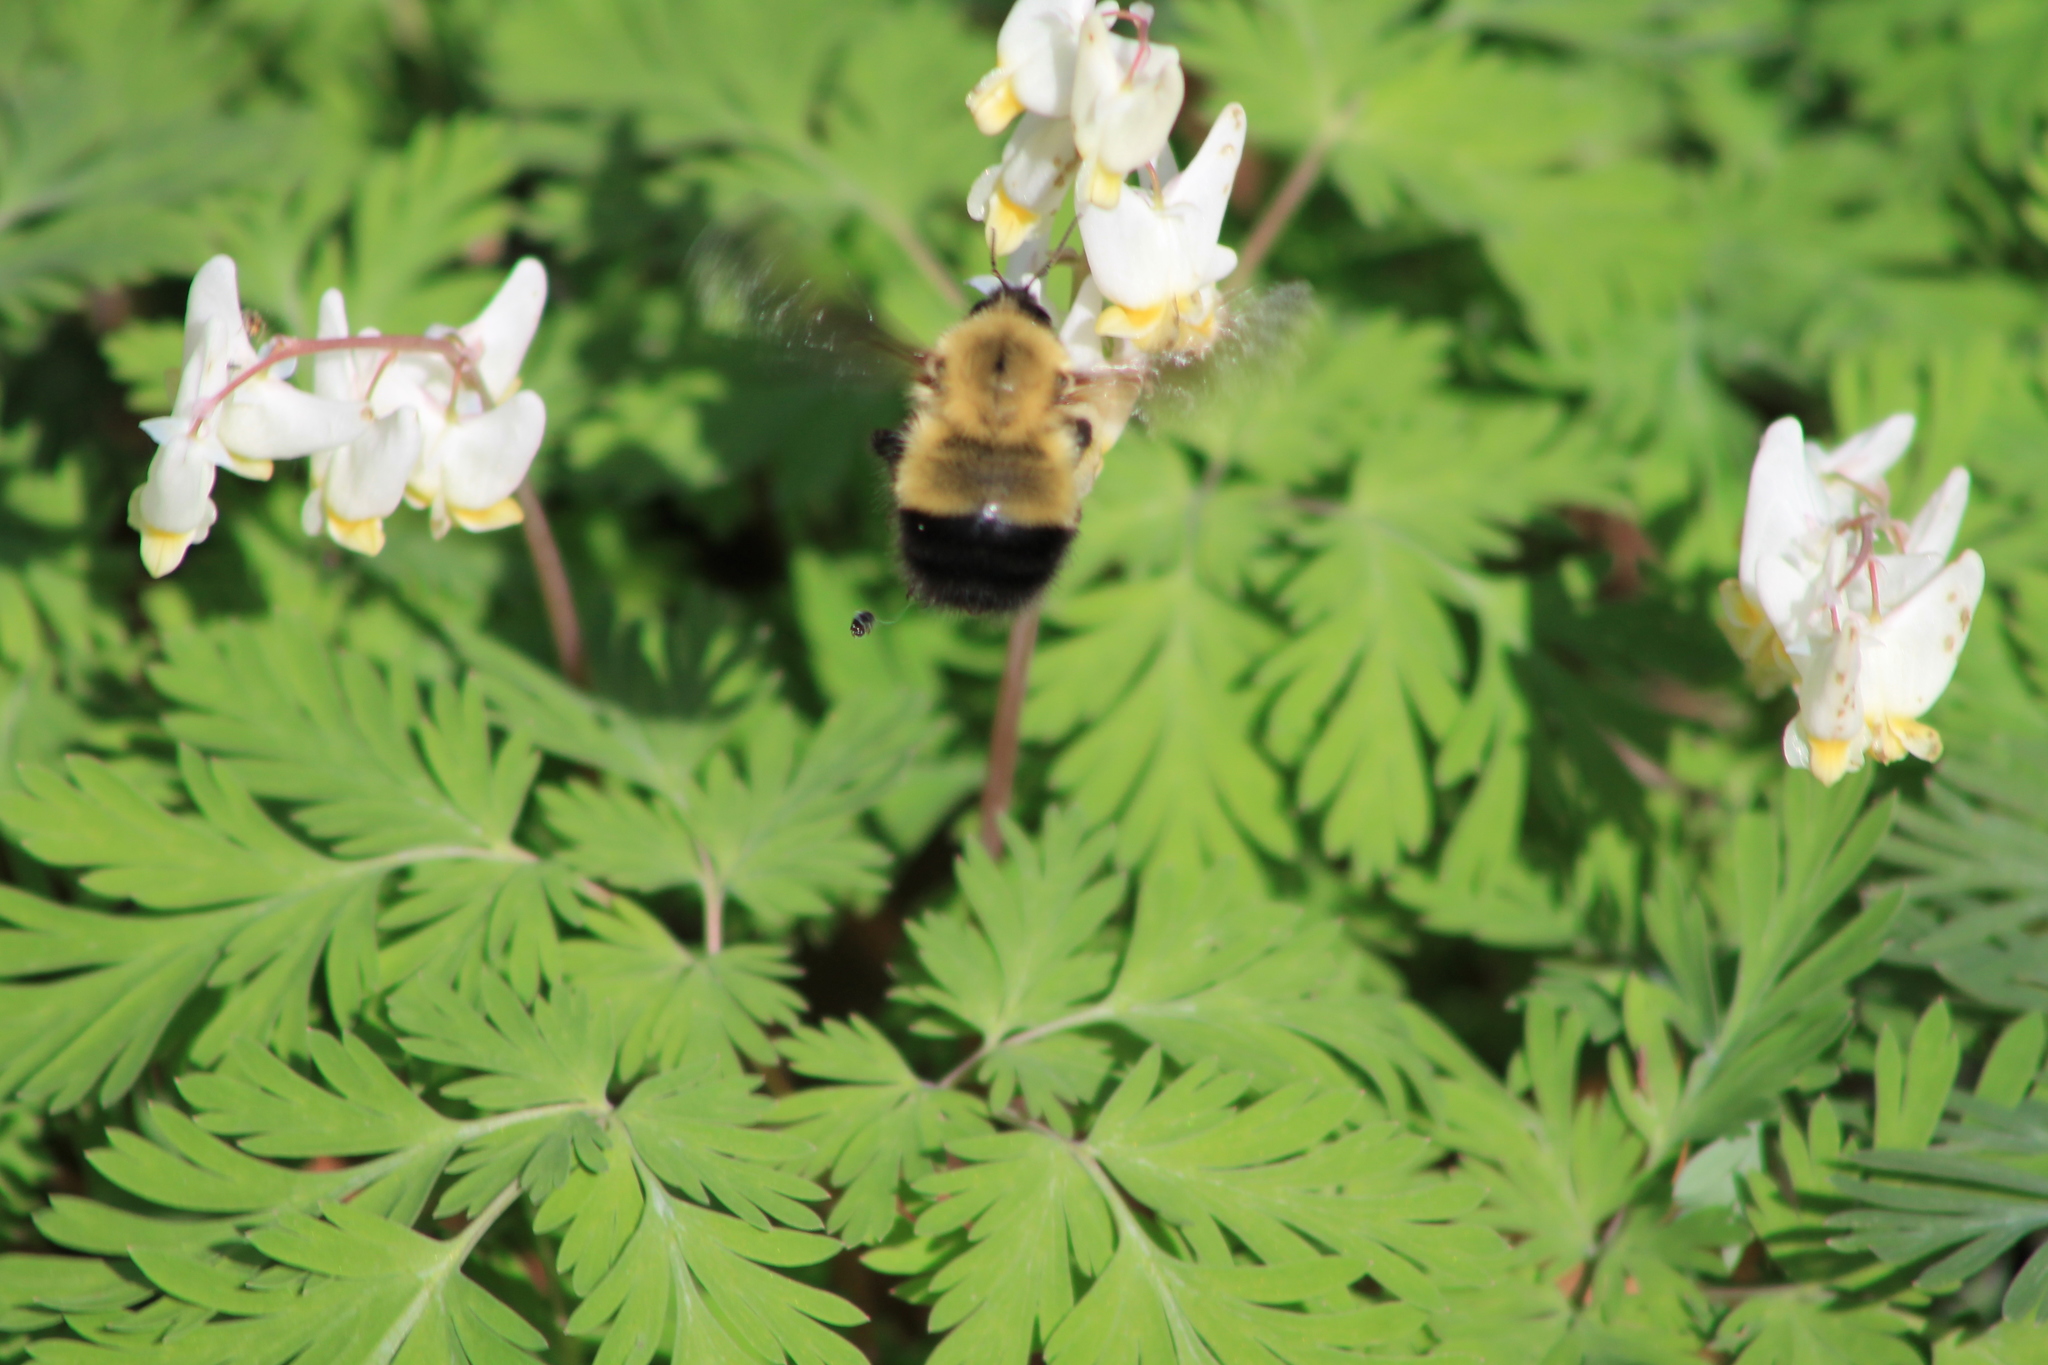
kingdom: Animalia
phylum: Arthropoda
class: Insecta
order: Hymenoptera
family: Apidae
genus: Bombus
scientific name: Bombus perplexus
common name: Confusing bumble bee
